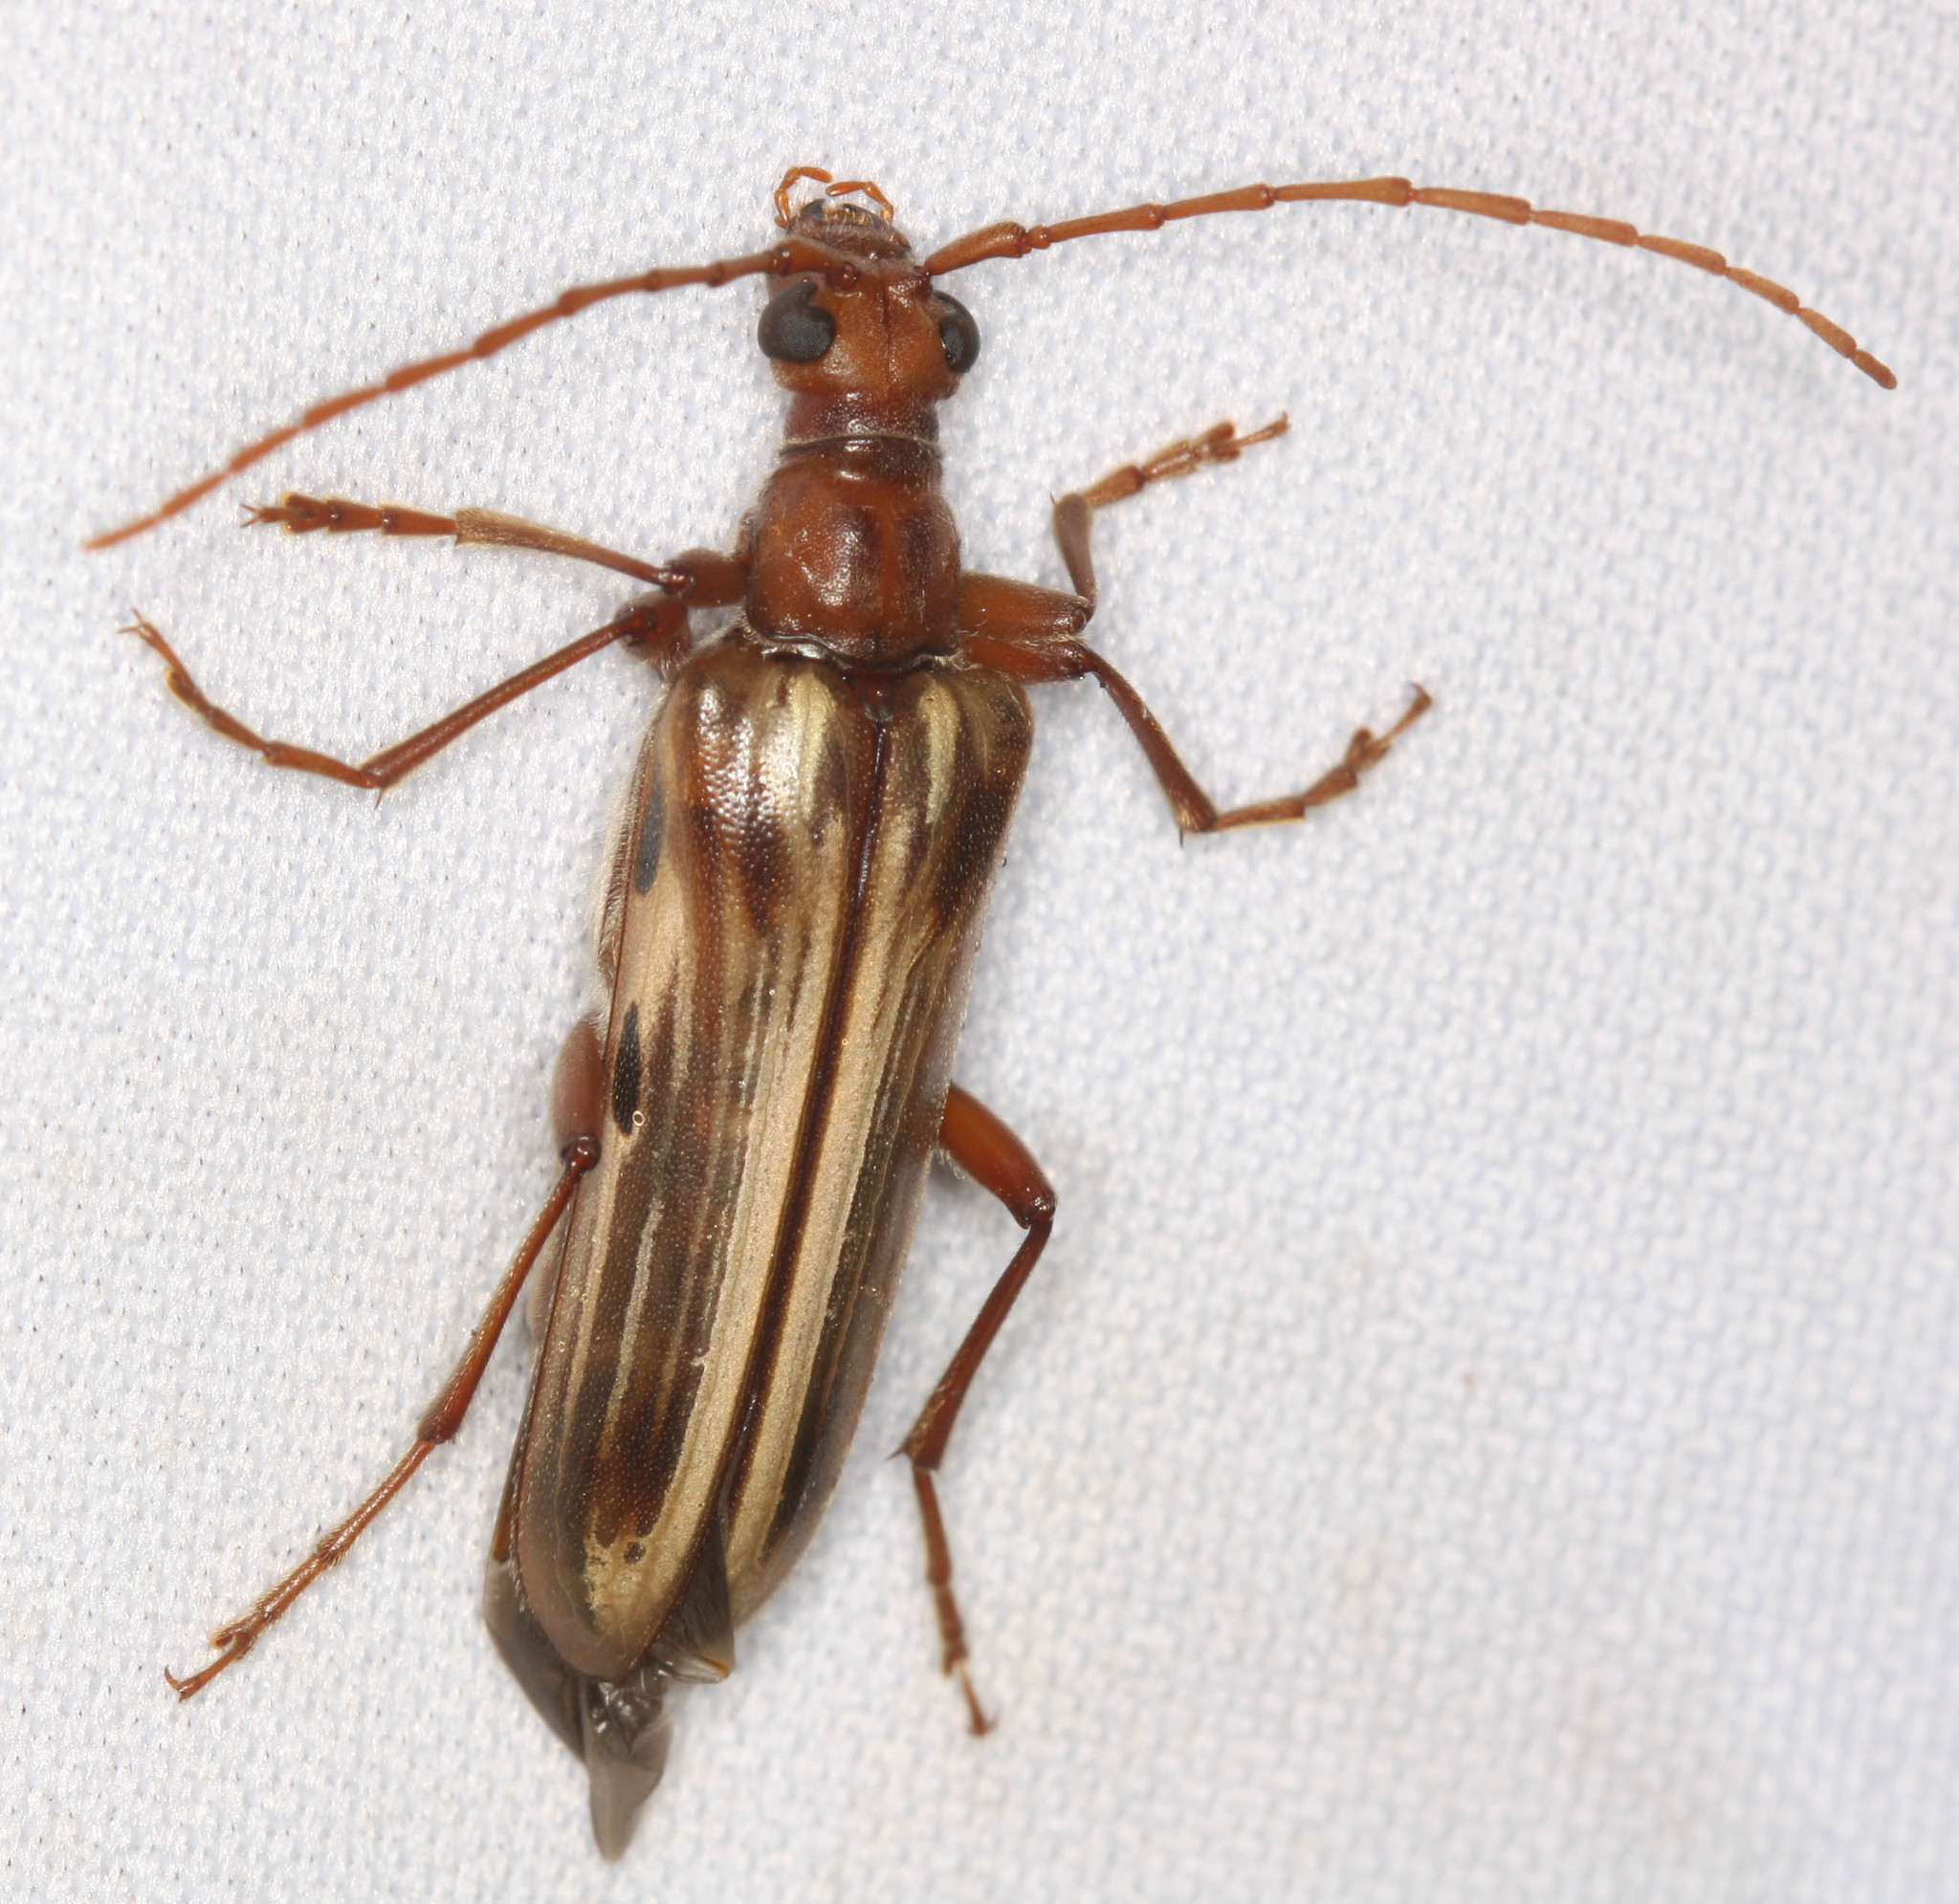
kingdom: Animalia
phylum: Arthropoda
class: Insecta
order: Coleoptera
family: Cerambycidae
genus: Ortholeptura
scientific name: Ortholeptura insignis
